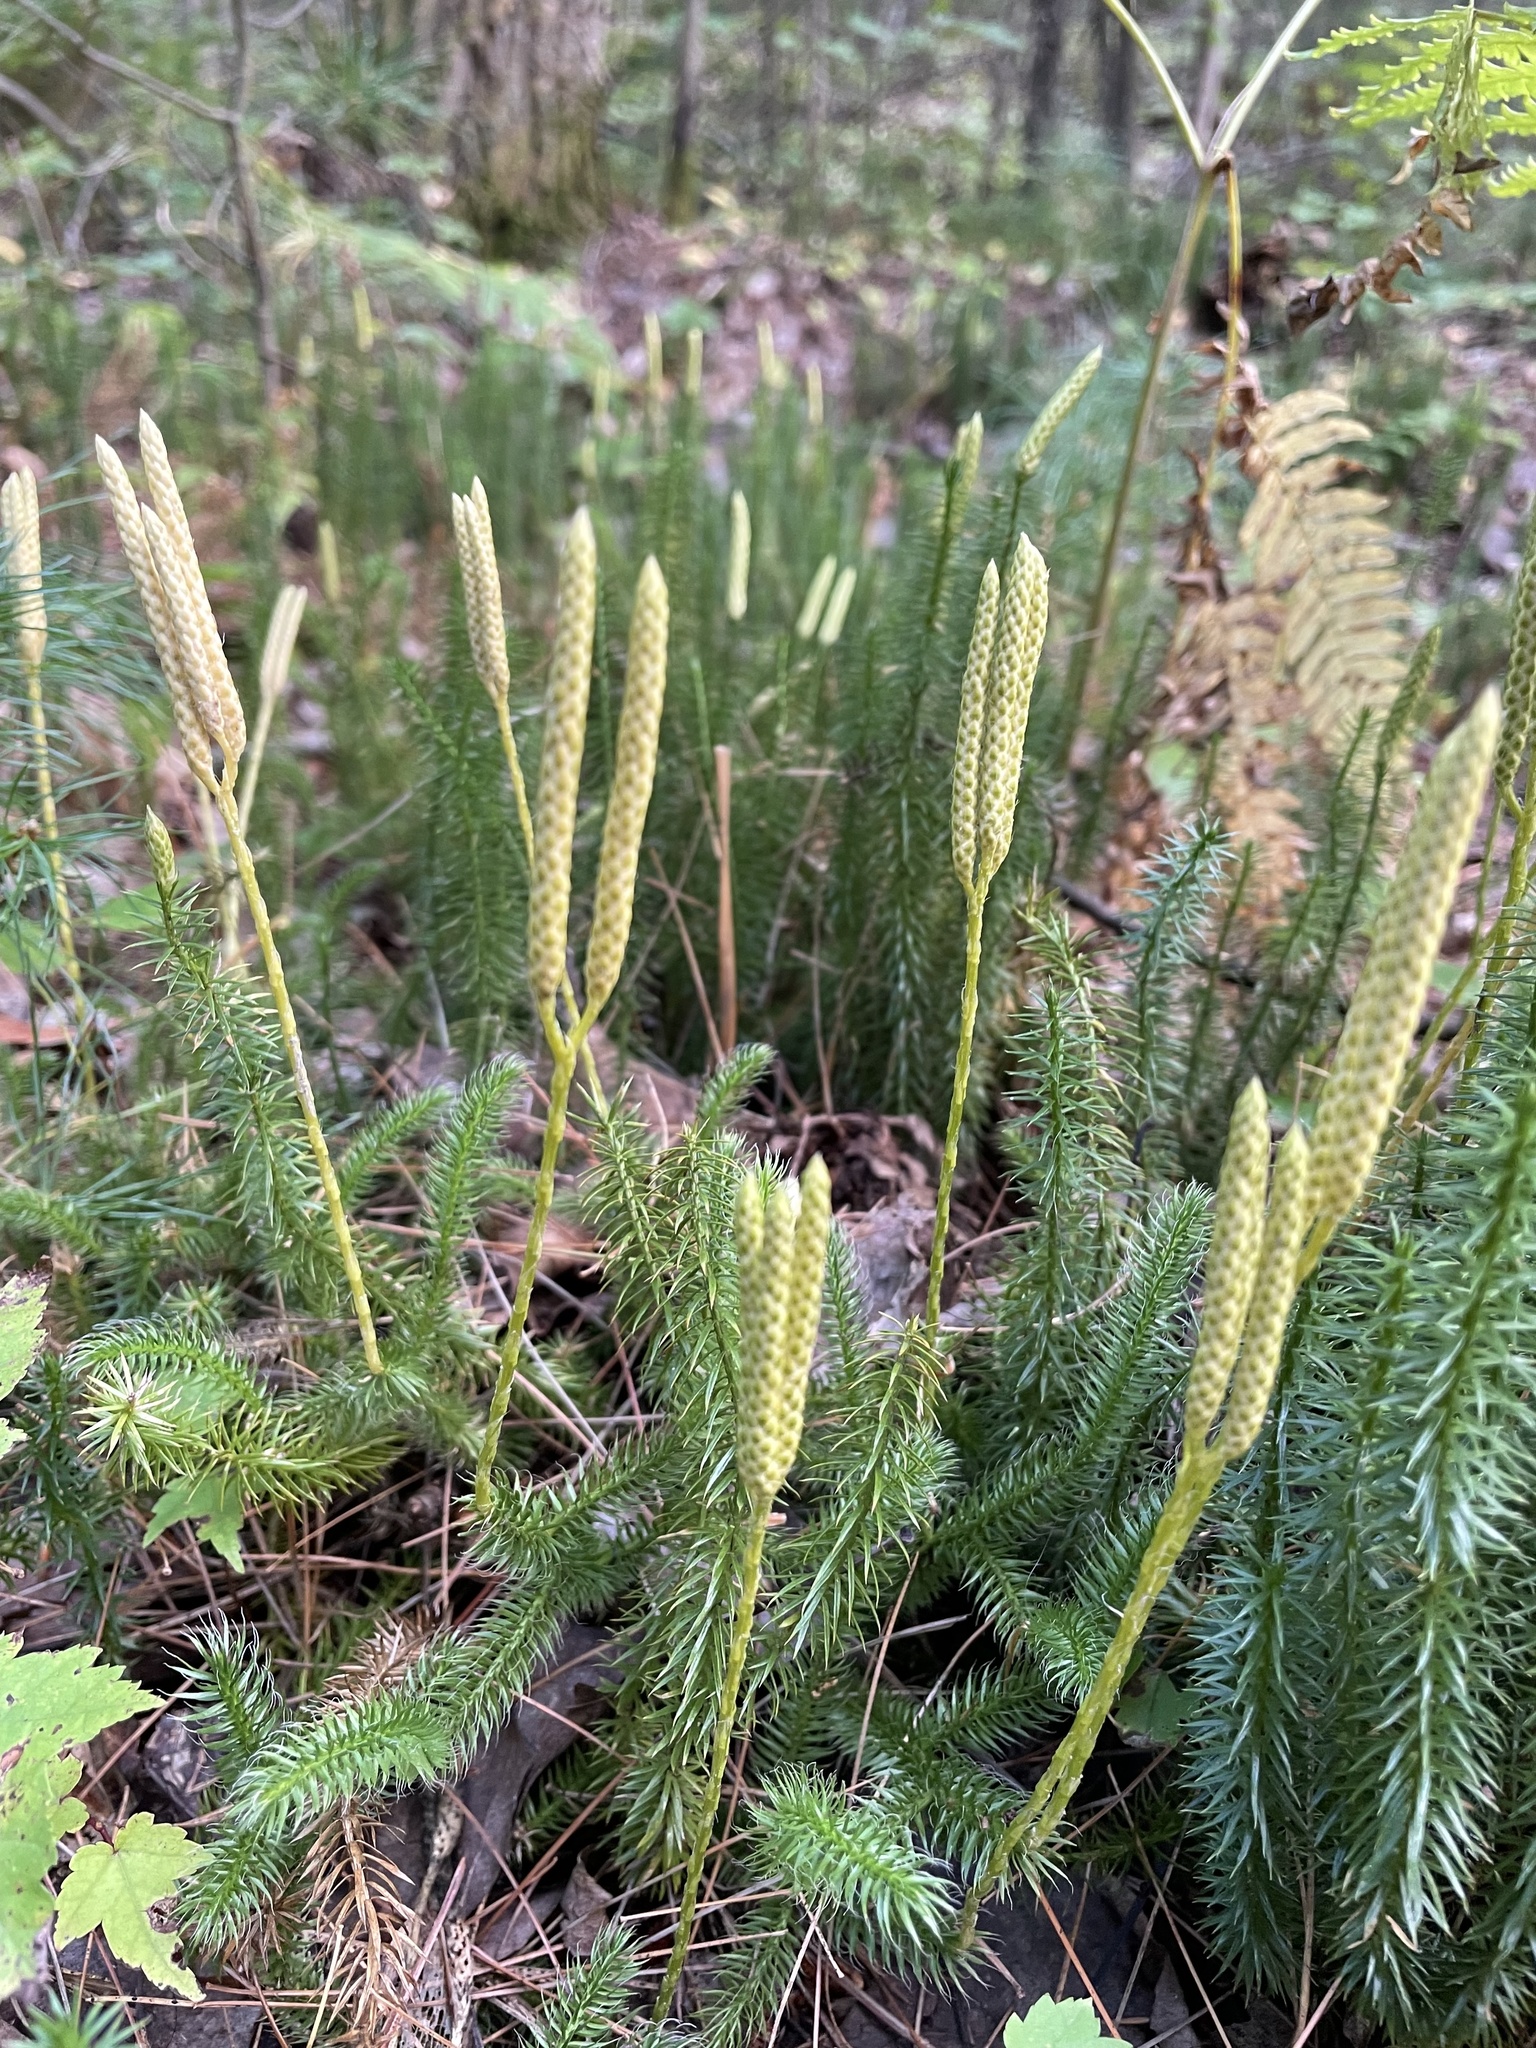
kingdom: Plantae
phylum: Tracheophyta
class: Lycopodiopsida
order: Lycopodiales
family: Lycopodiaceae
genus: Lycopodium
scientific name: Lycopodium clavatum
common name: Stag's-horn clubmoss
